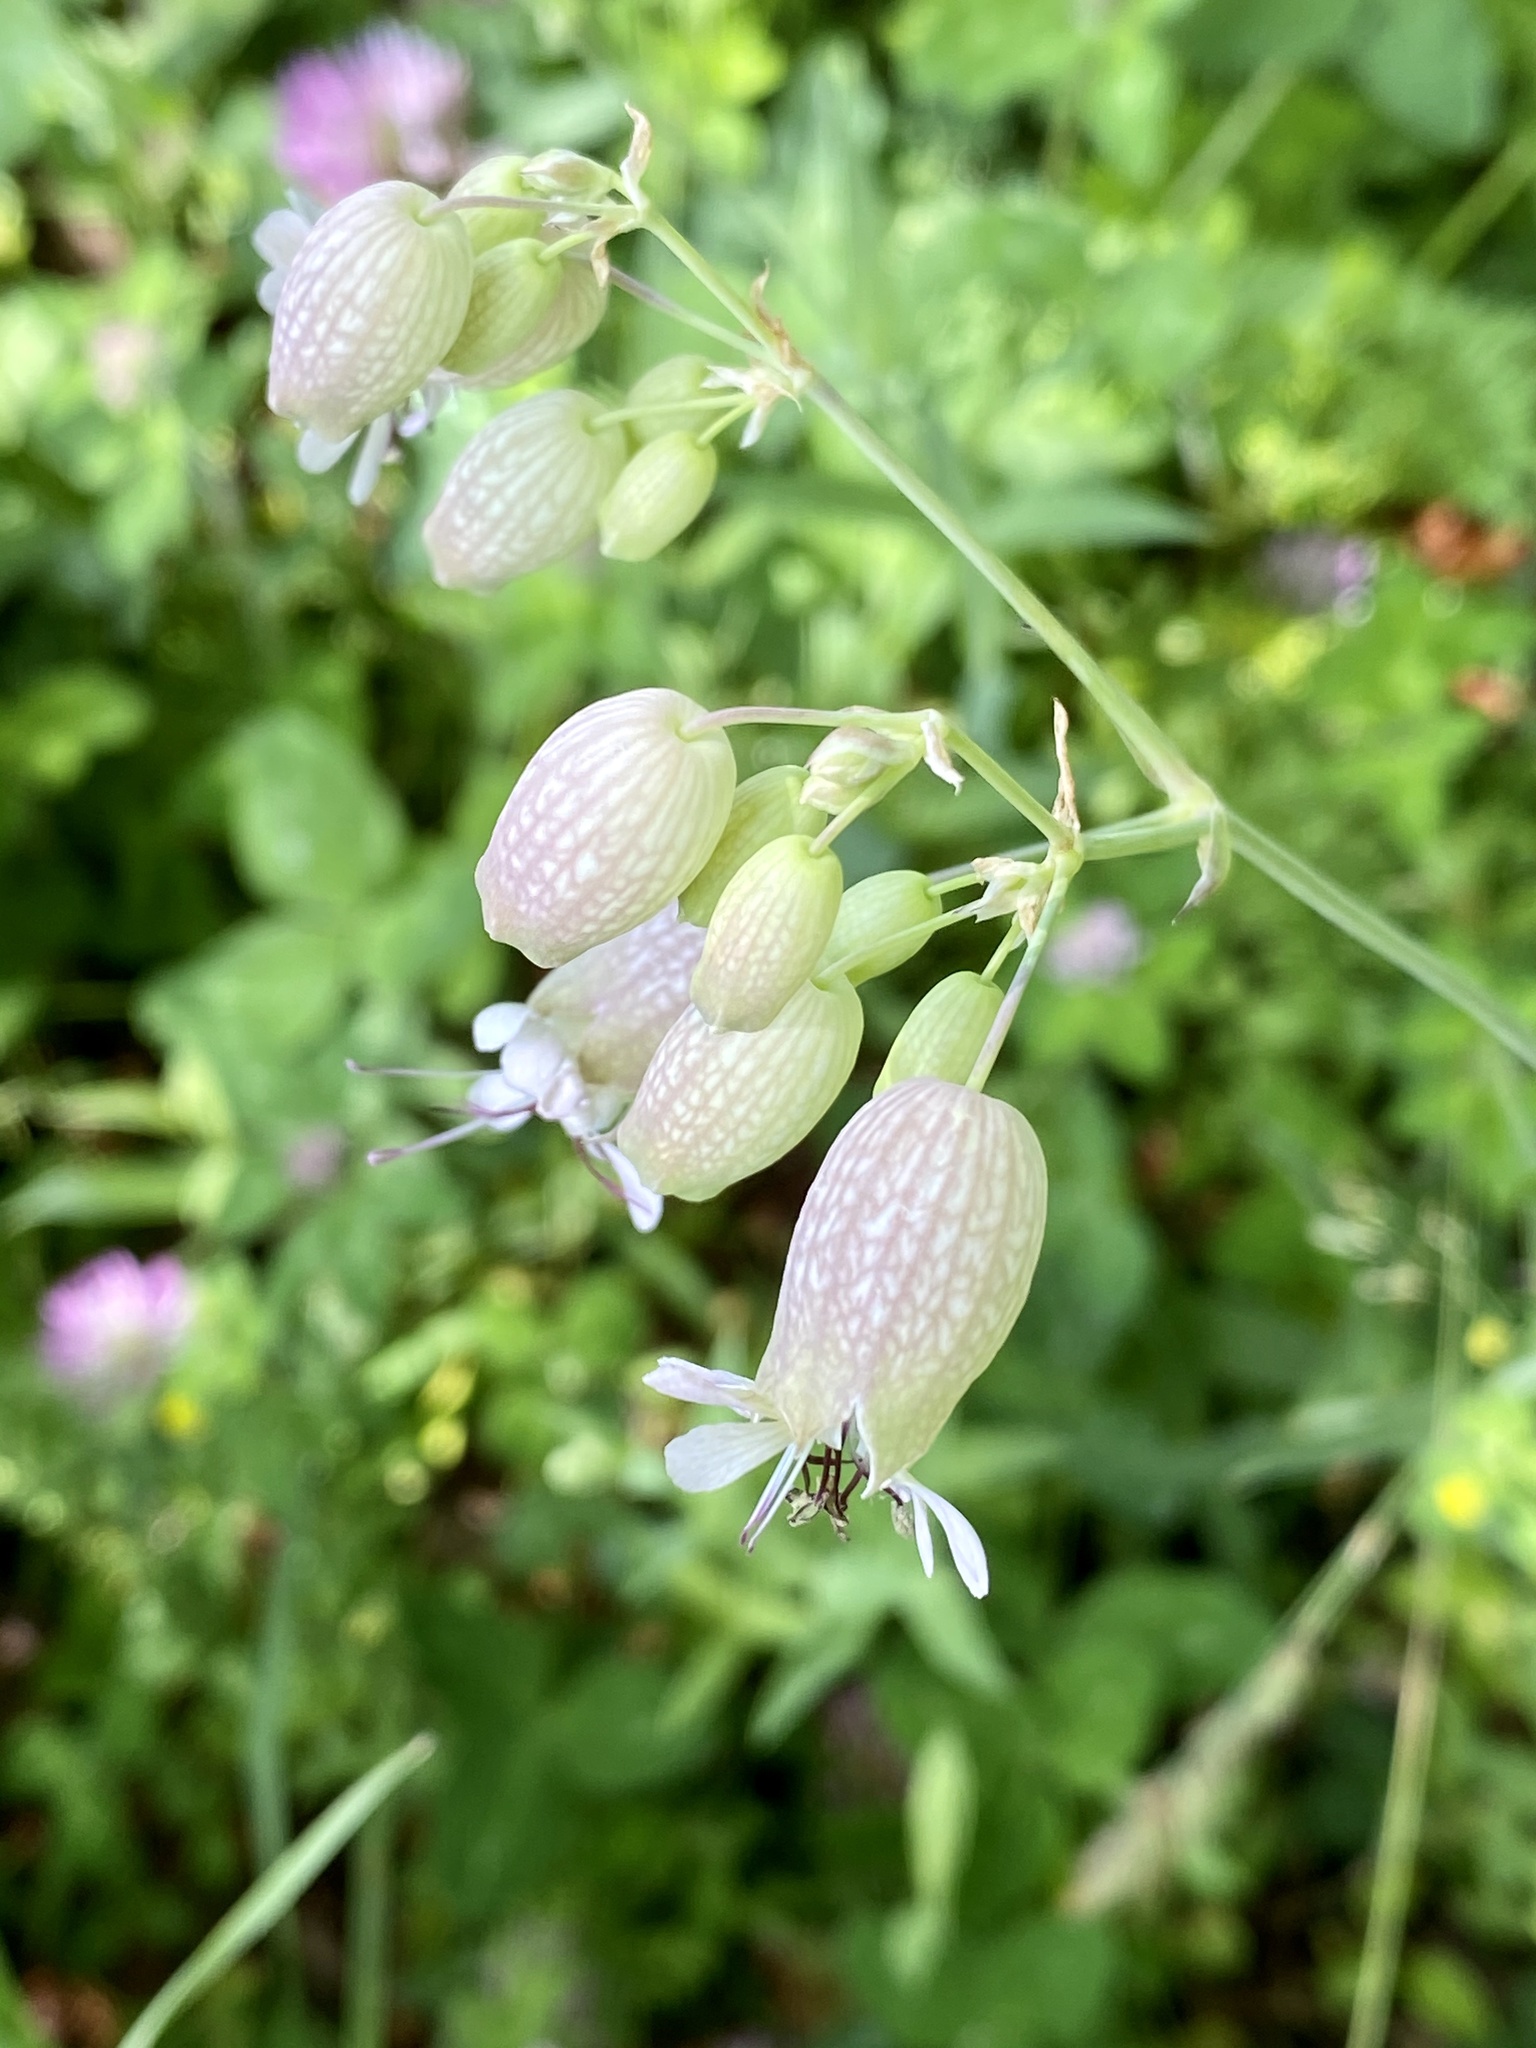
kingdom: Plantae
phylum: Tracheophyta
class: Magnoliopsida
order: Caryophyllales
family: Caryophyllaceae
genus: Silene
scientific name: Silene vulgaris
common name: Bladder campion
